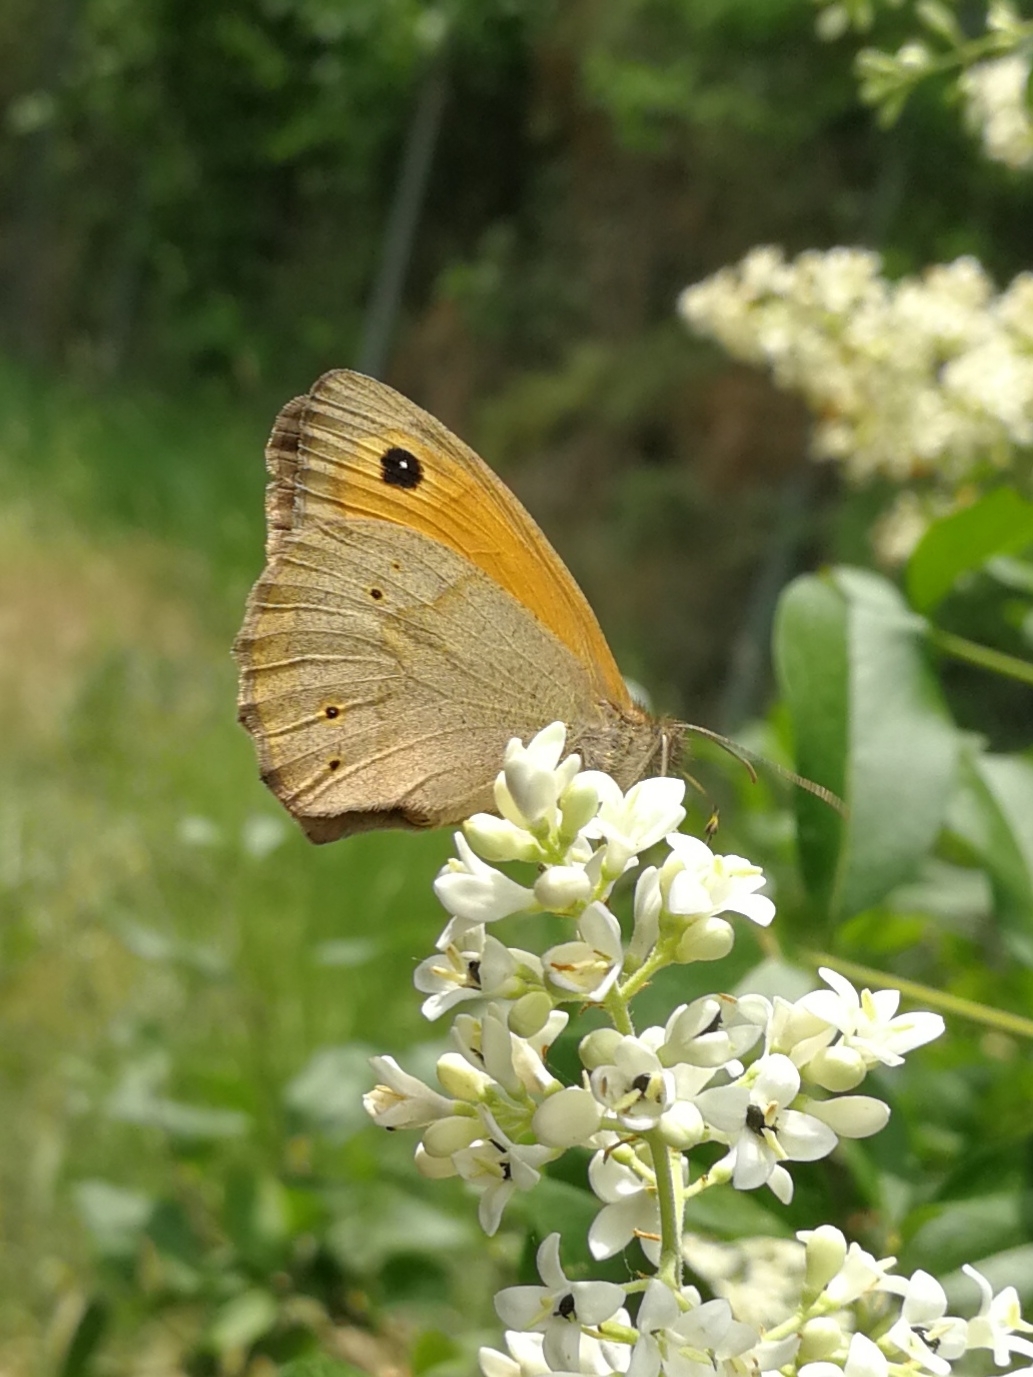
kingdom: Animalia
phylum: Arthropoda
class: Insecta
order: Lepidoptera
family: Nymphalidae
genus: Maniola
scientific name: Maniola jurtina
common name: Meadow brown
